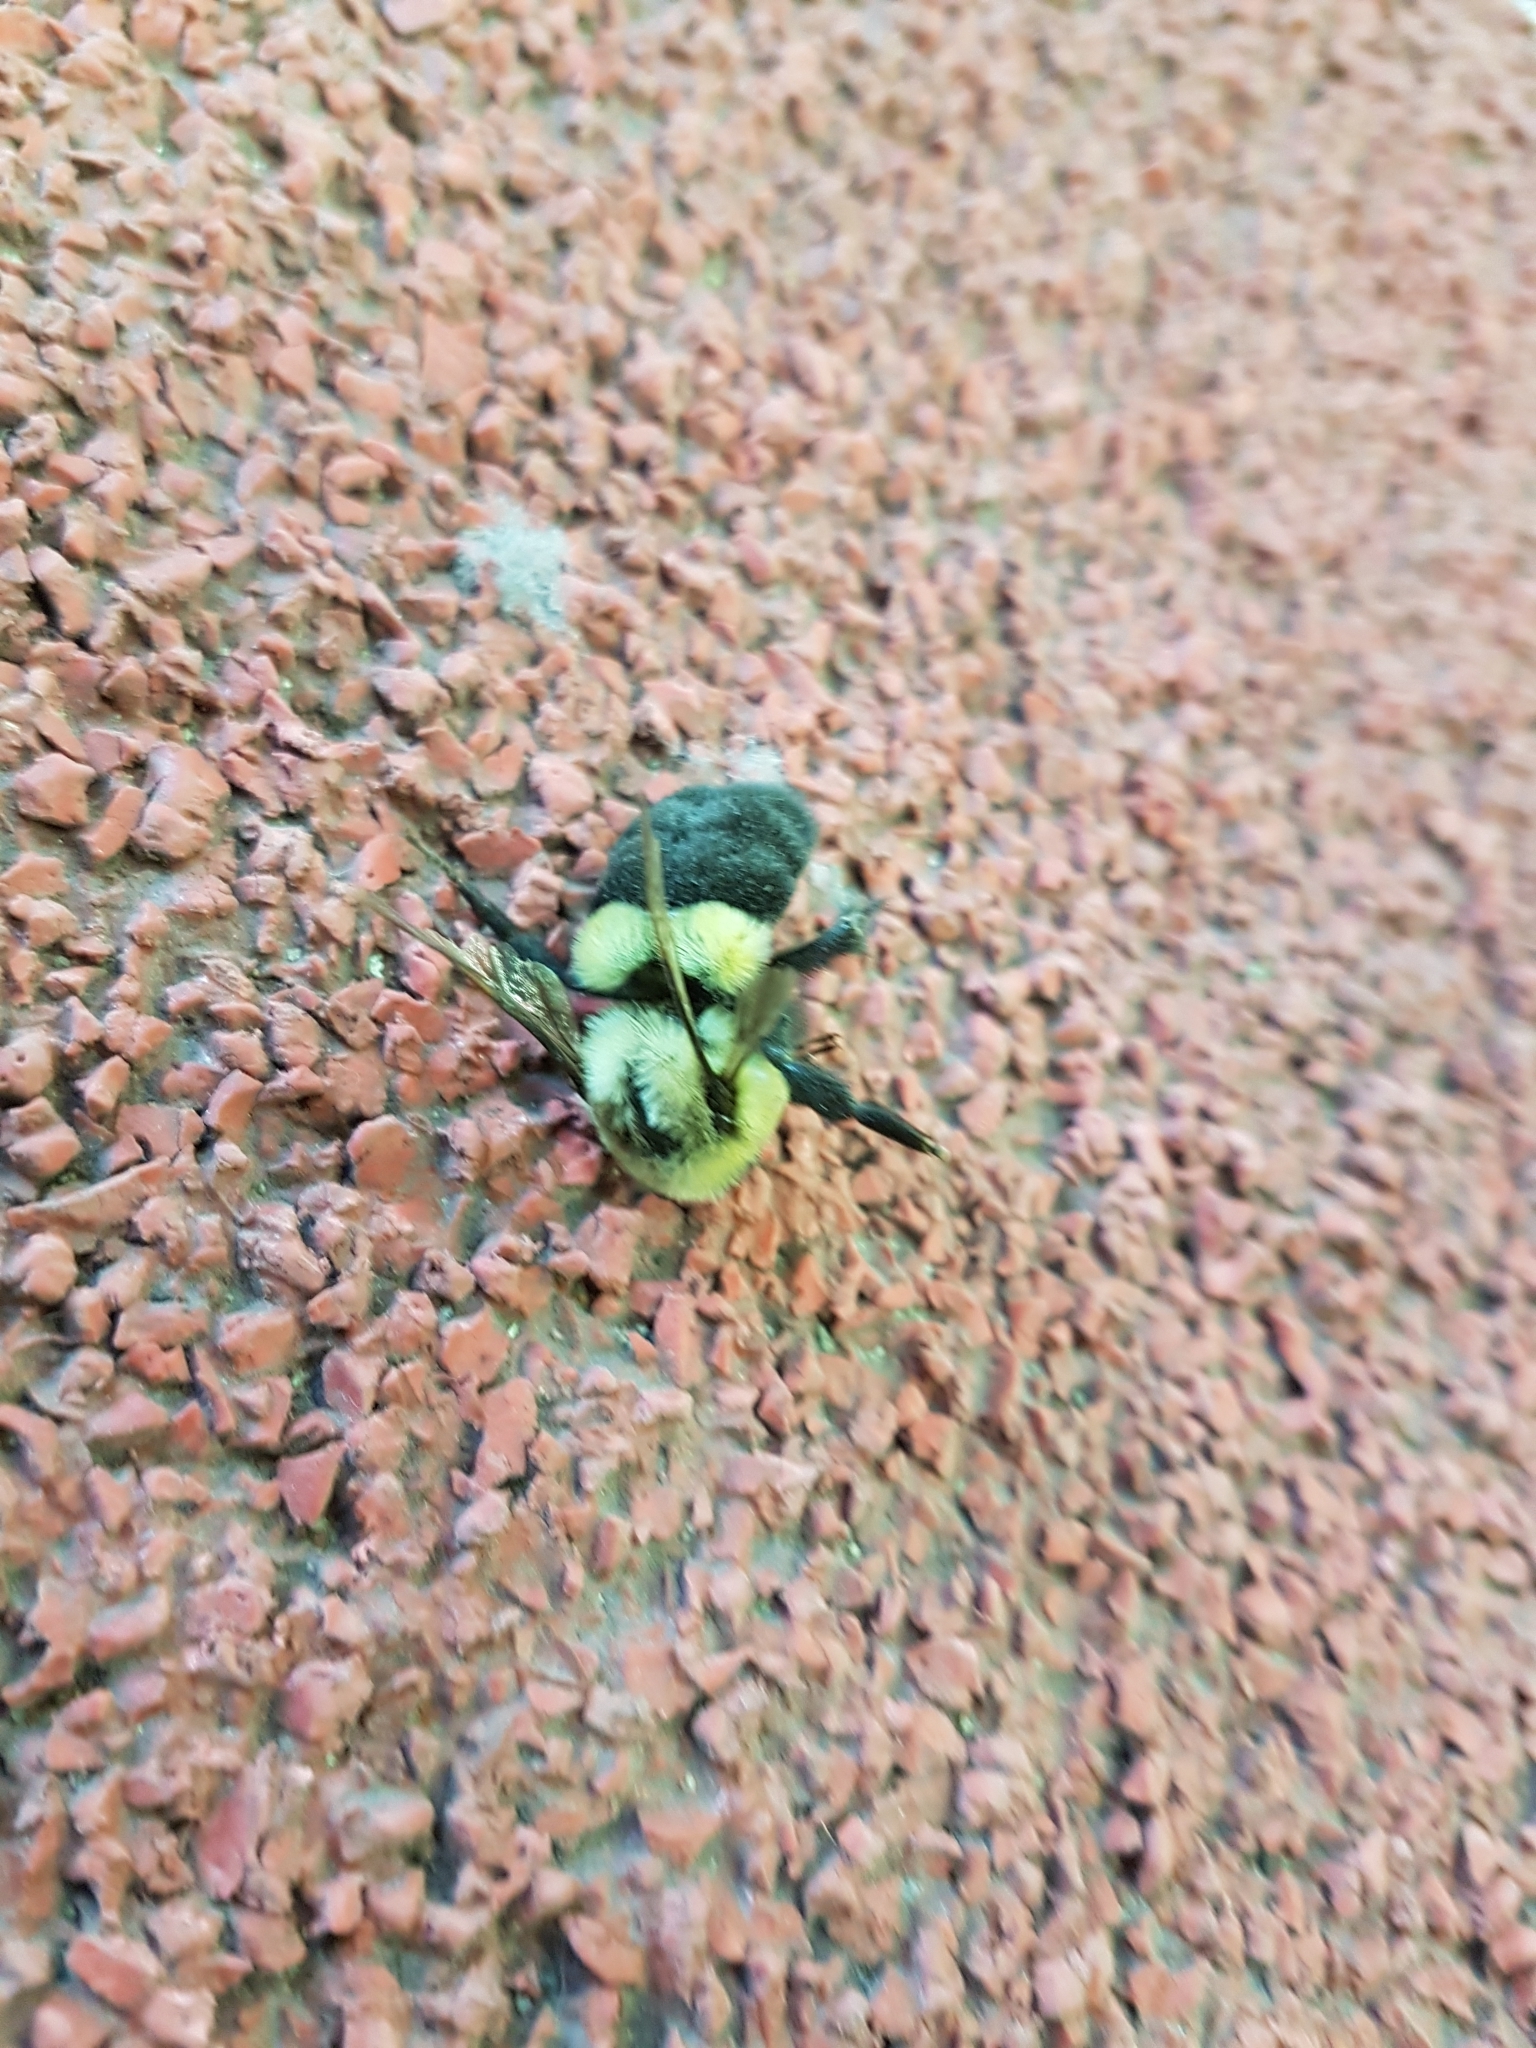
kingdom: Animalia
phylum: Arthropoda
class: Insecta
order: Hymenoptera
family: Apidae
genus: Bombus
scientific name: Bombus impatiens
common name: Common eastern bumble bee
